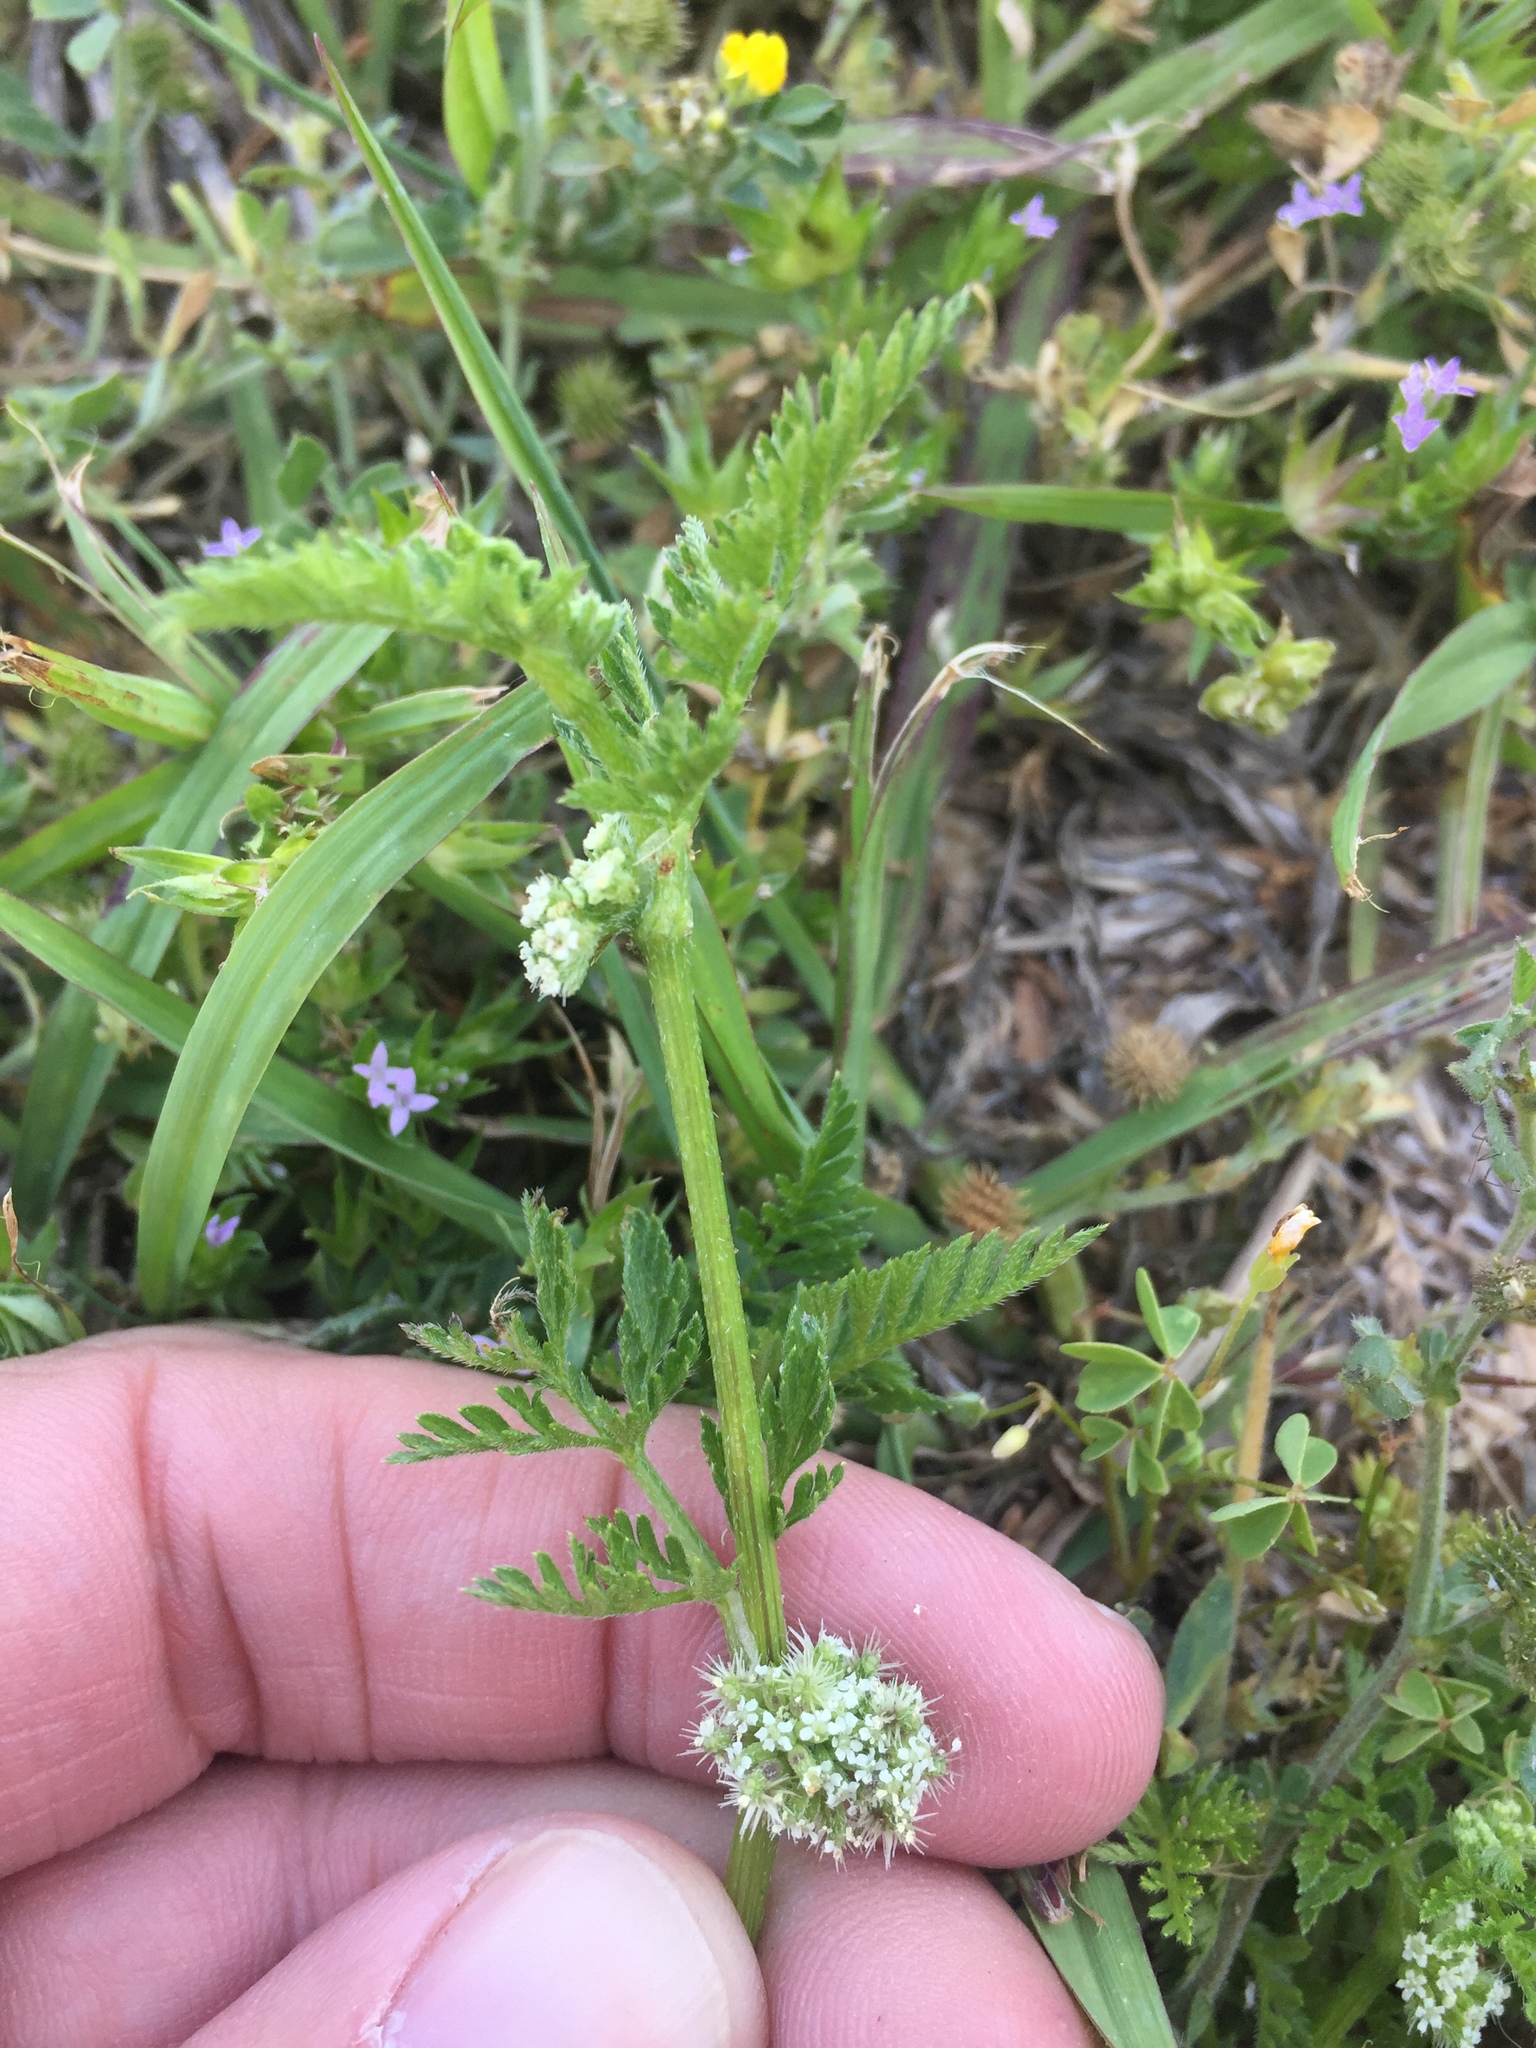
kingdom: Plantae
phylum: Tracheophyta
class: Magnoliopsida
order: Apiales
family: Apiaceae
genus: Torilis
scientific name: Torilis nodosa
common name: Knotted hedge-parsley
